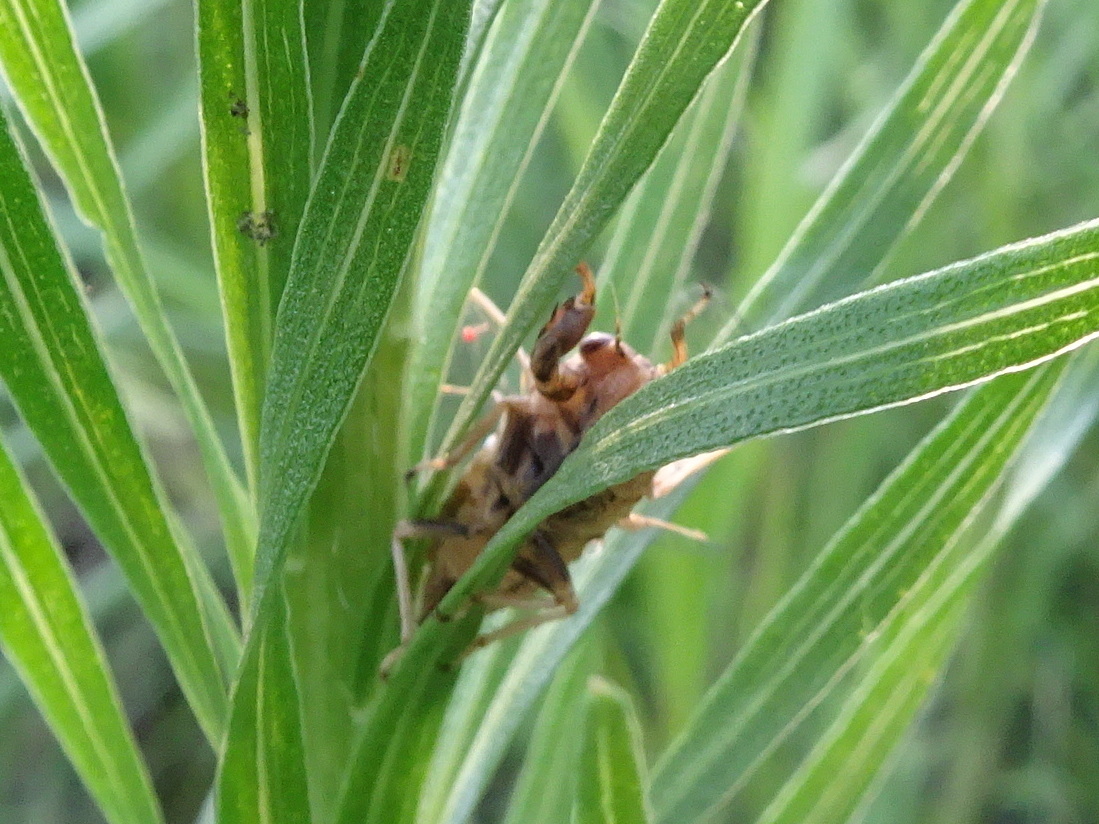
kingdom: Animalia
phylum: Arthropoda
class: Insecta
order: Hemiptera
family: Cicadidae
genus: Cicadettana
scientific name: Cicadettana calliope
